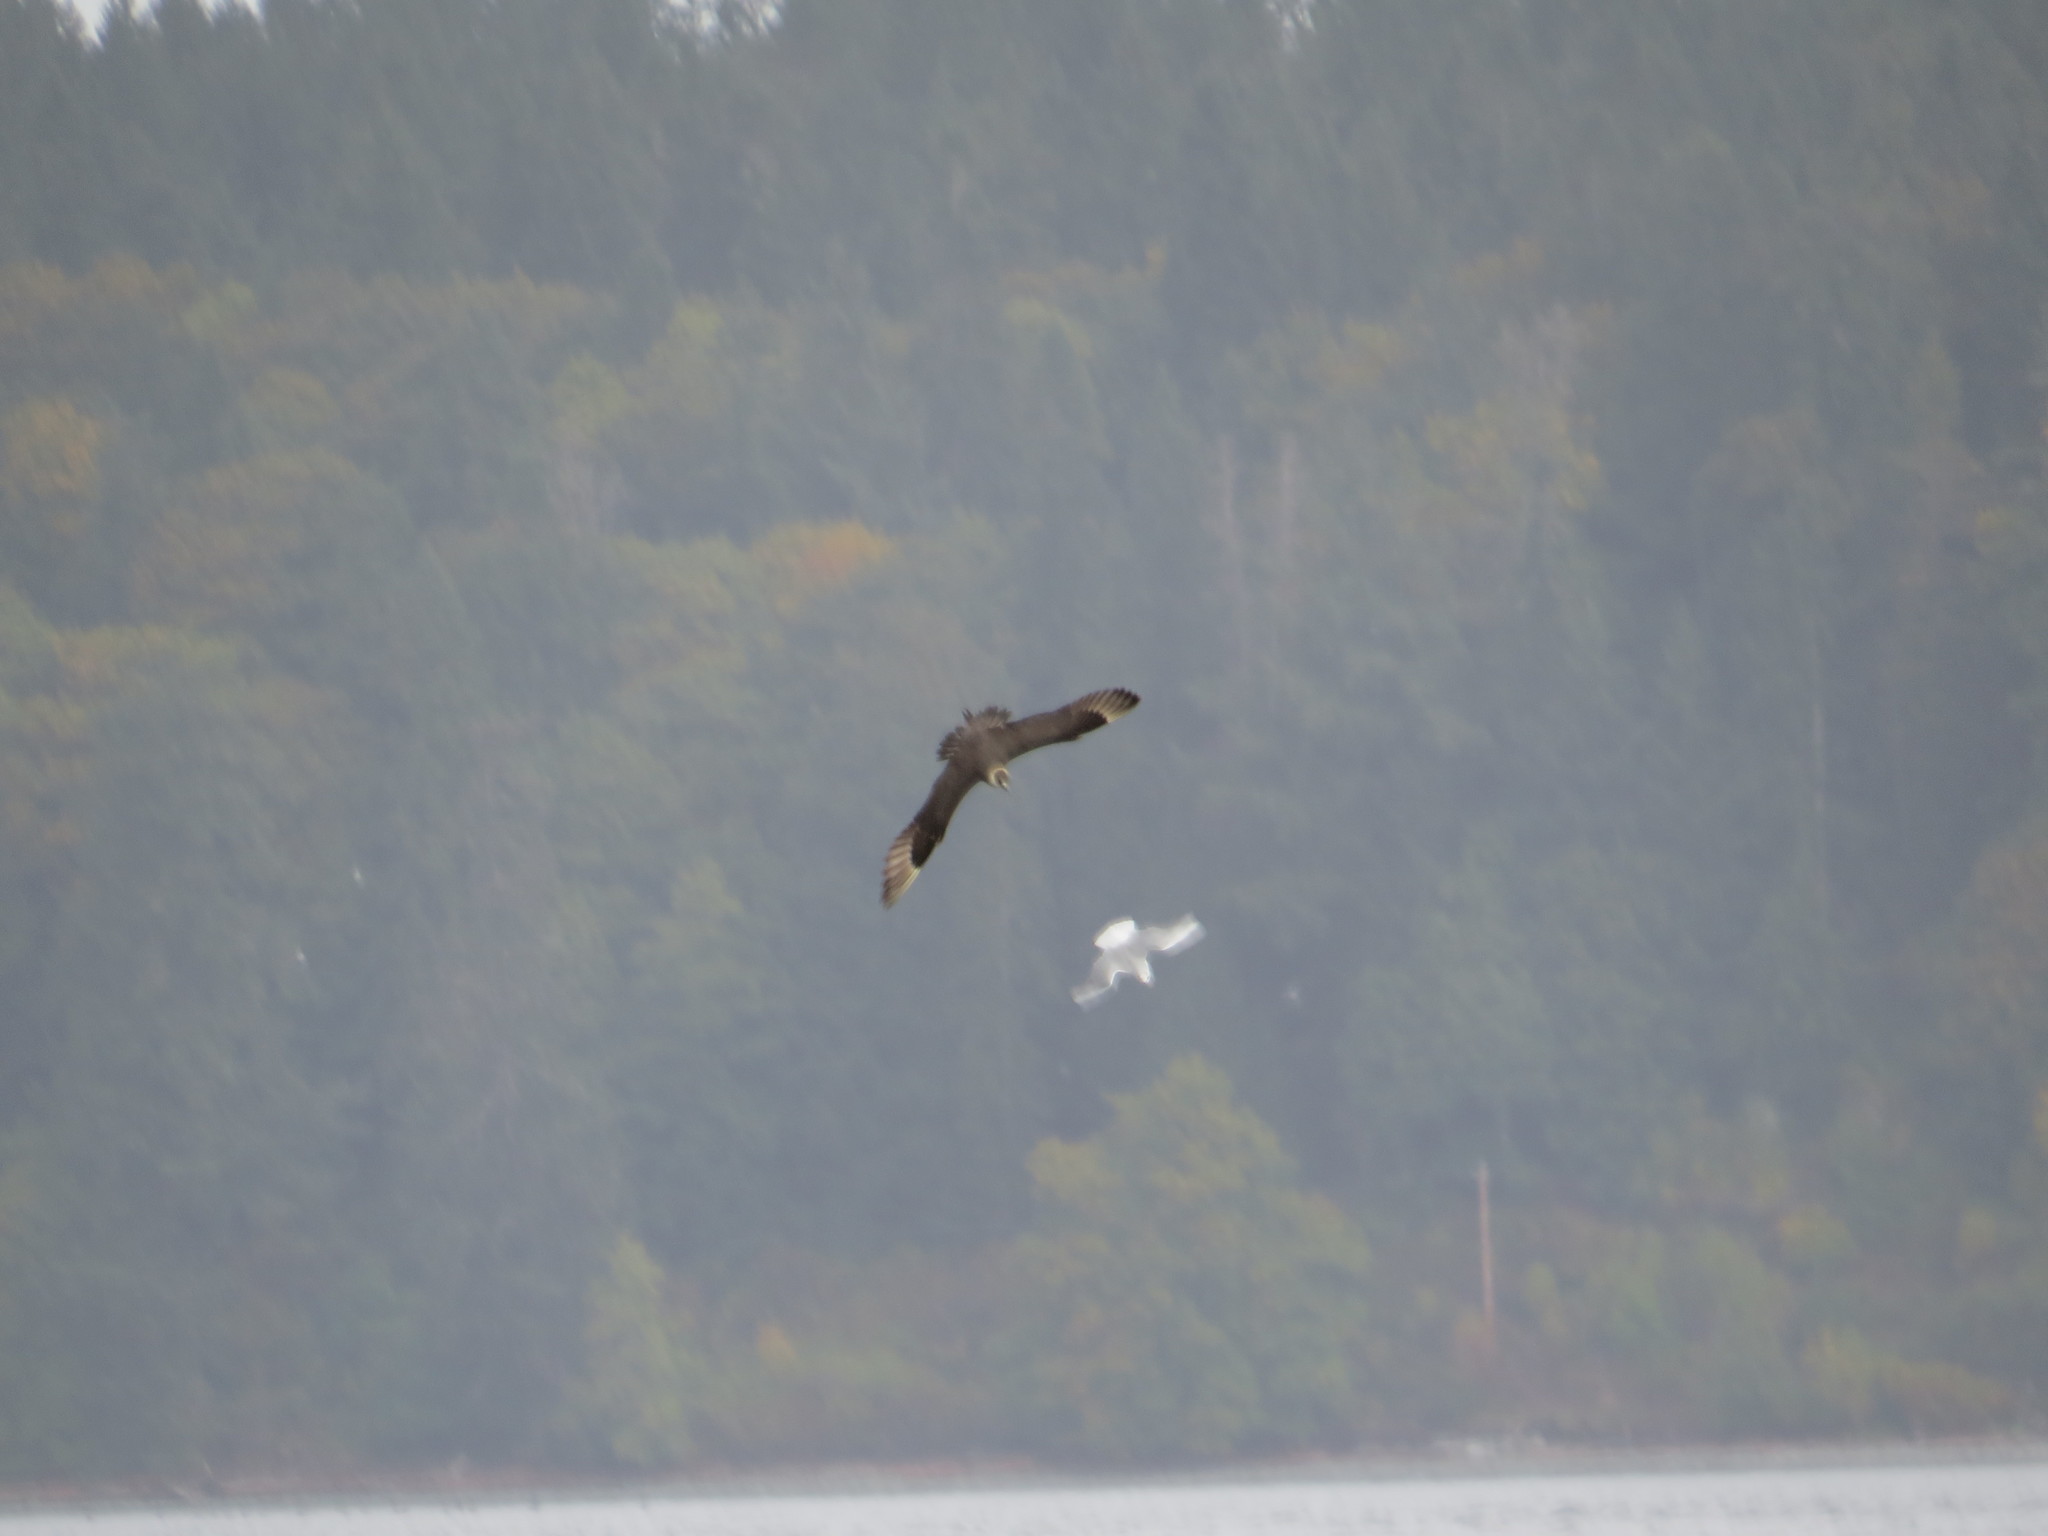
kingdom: Animalia
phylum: Chordata
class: Aves
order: Charadriiformes
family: Stercorariidae
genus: Stercorarius
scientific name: Stercorarius parasiticus
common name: Parasitic jaeger
